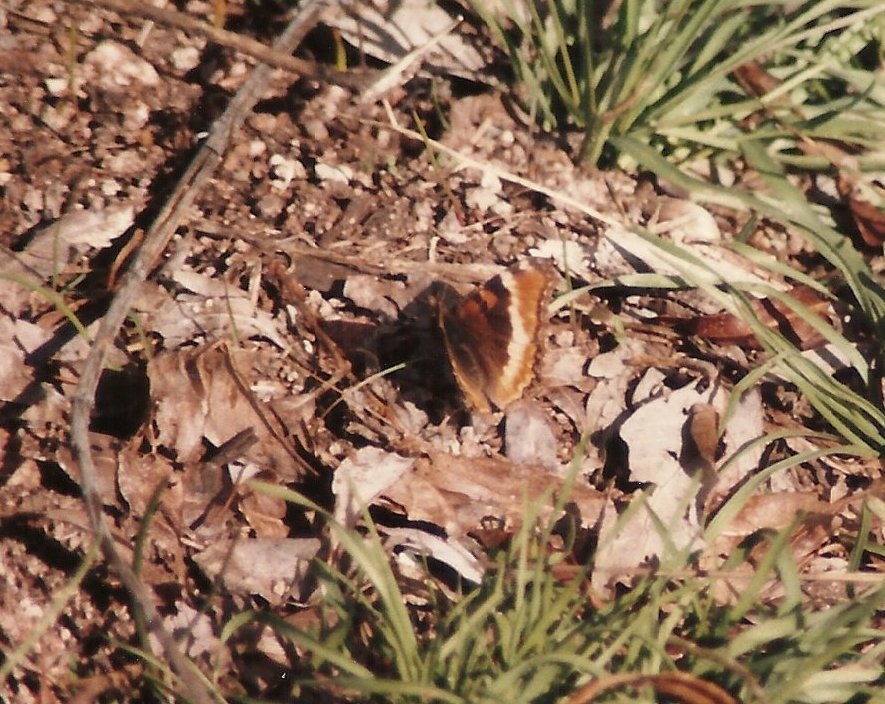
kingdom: Animalia
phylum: Arthropoda
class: Insecta
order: Lepidoptera
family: Nymphalidae
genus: Aglais
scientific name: Aglais milberti
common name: Milbert's tortoiseshell
